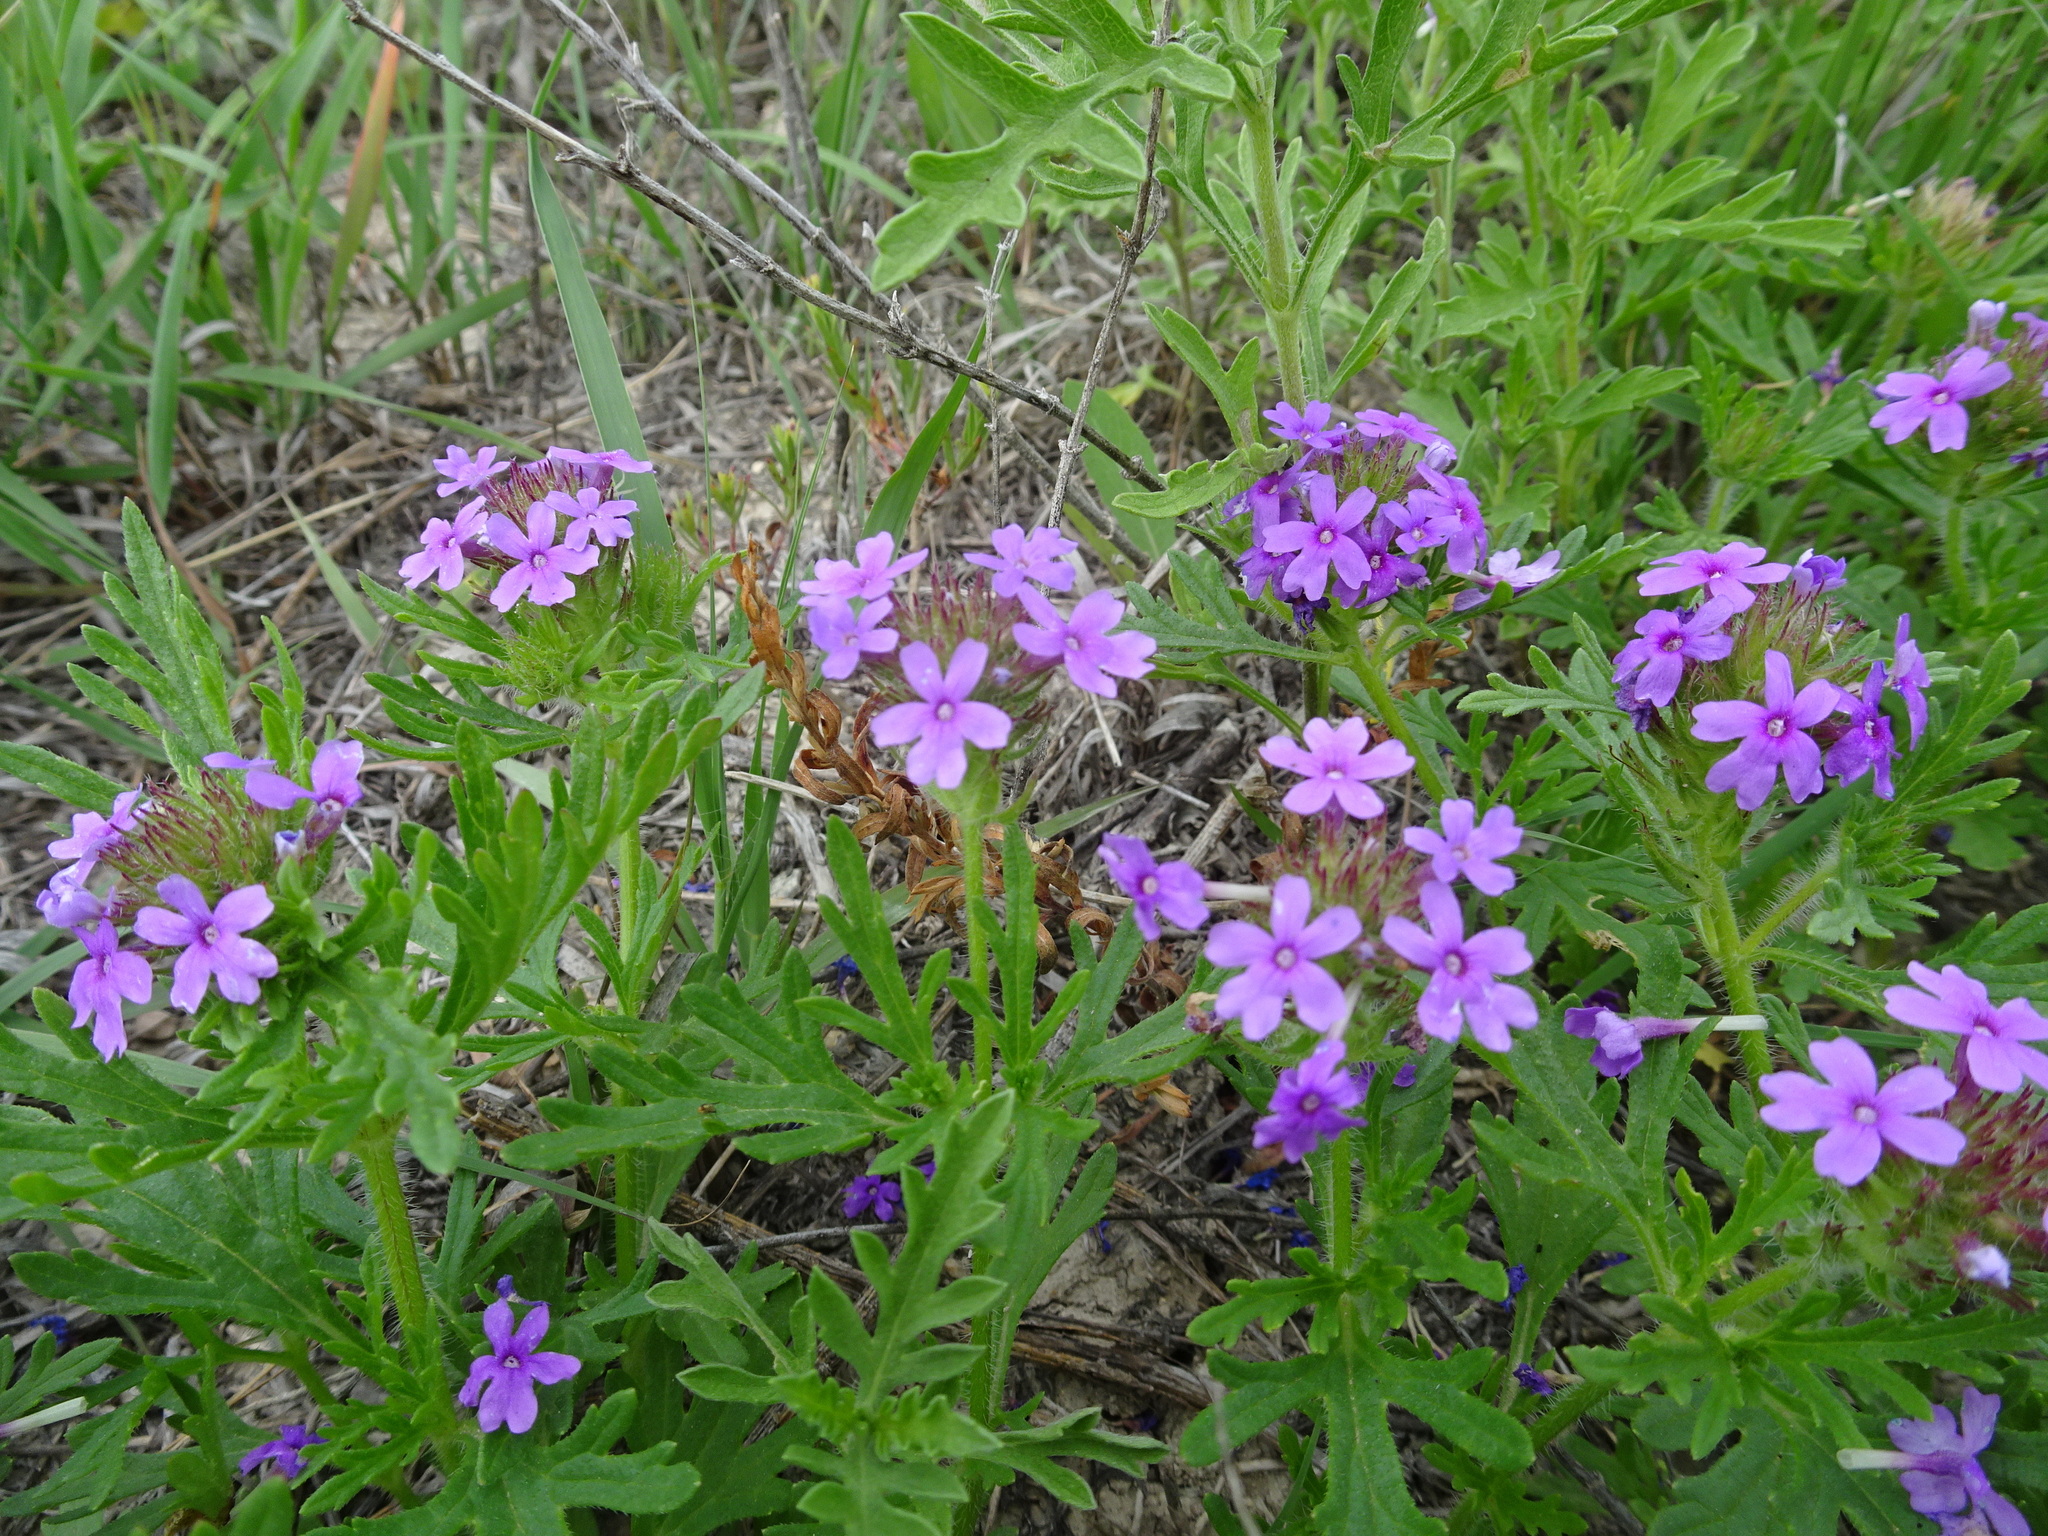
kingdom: Plantae
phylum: Tracheophyta
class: Magnoliopsida
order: Lamiales
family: Verbenaceae
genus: Verbena
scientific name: Verbena bipinnatifida
